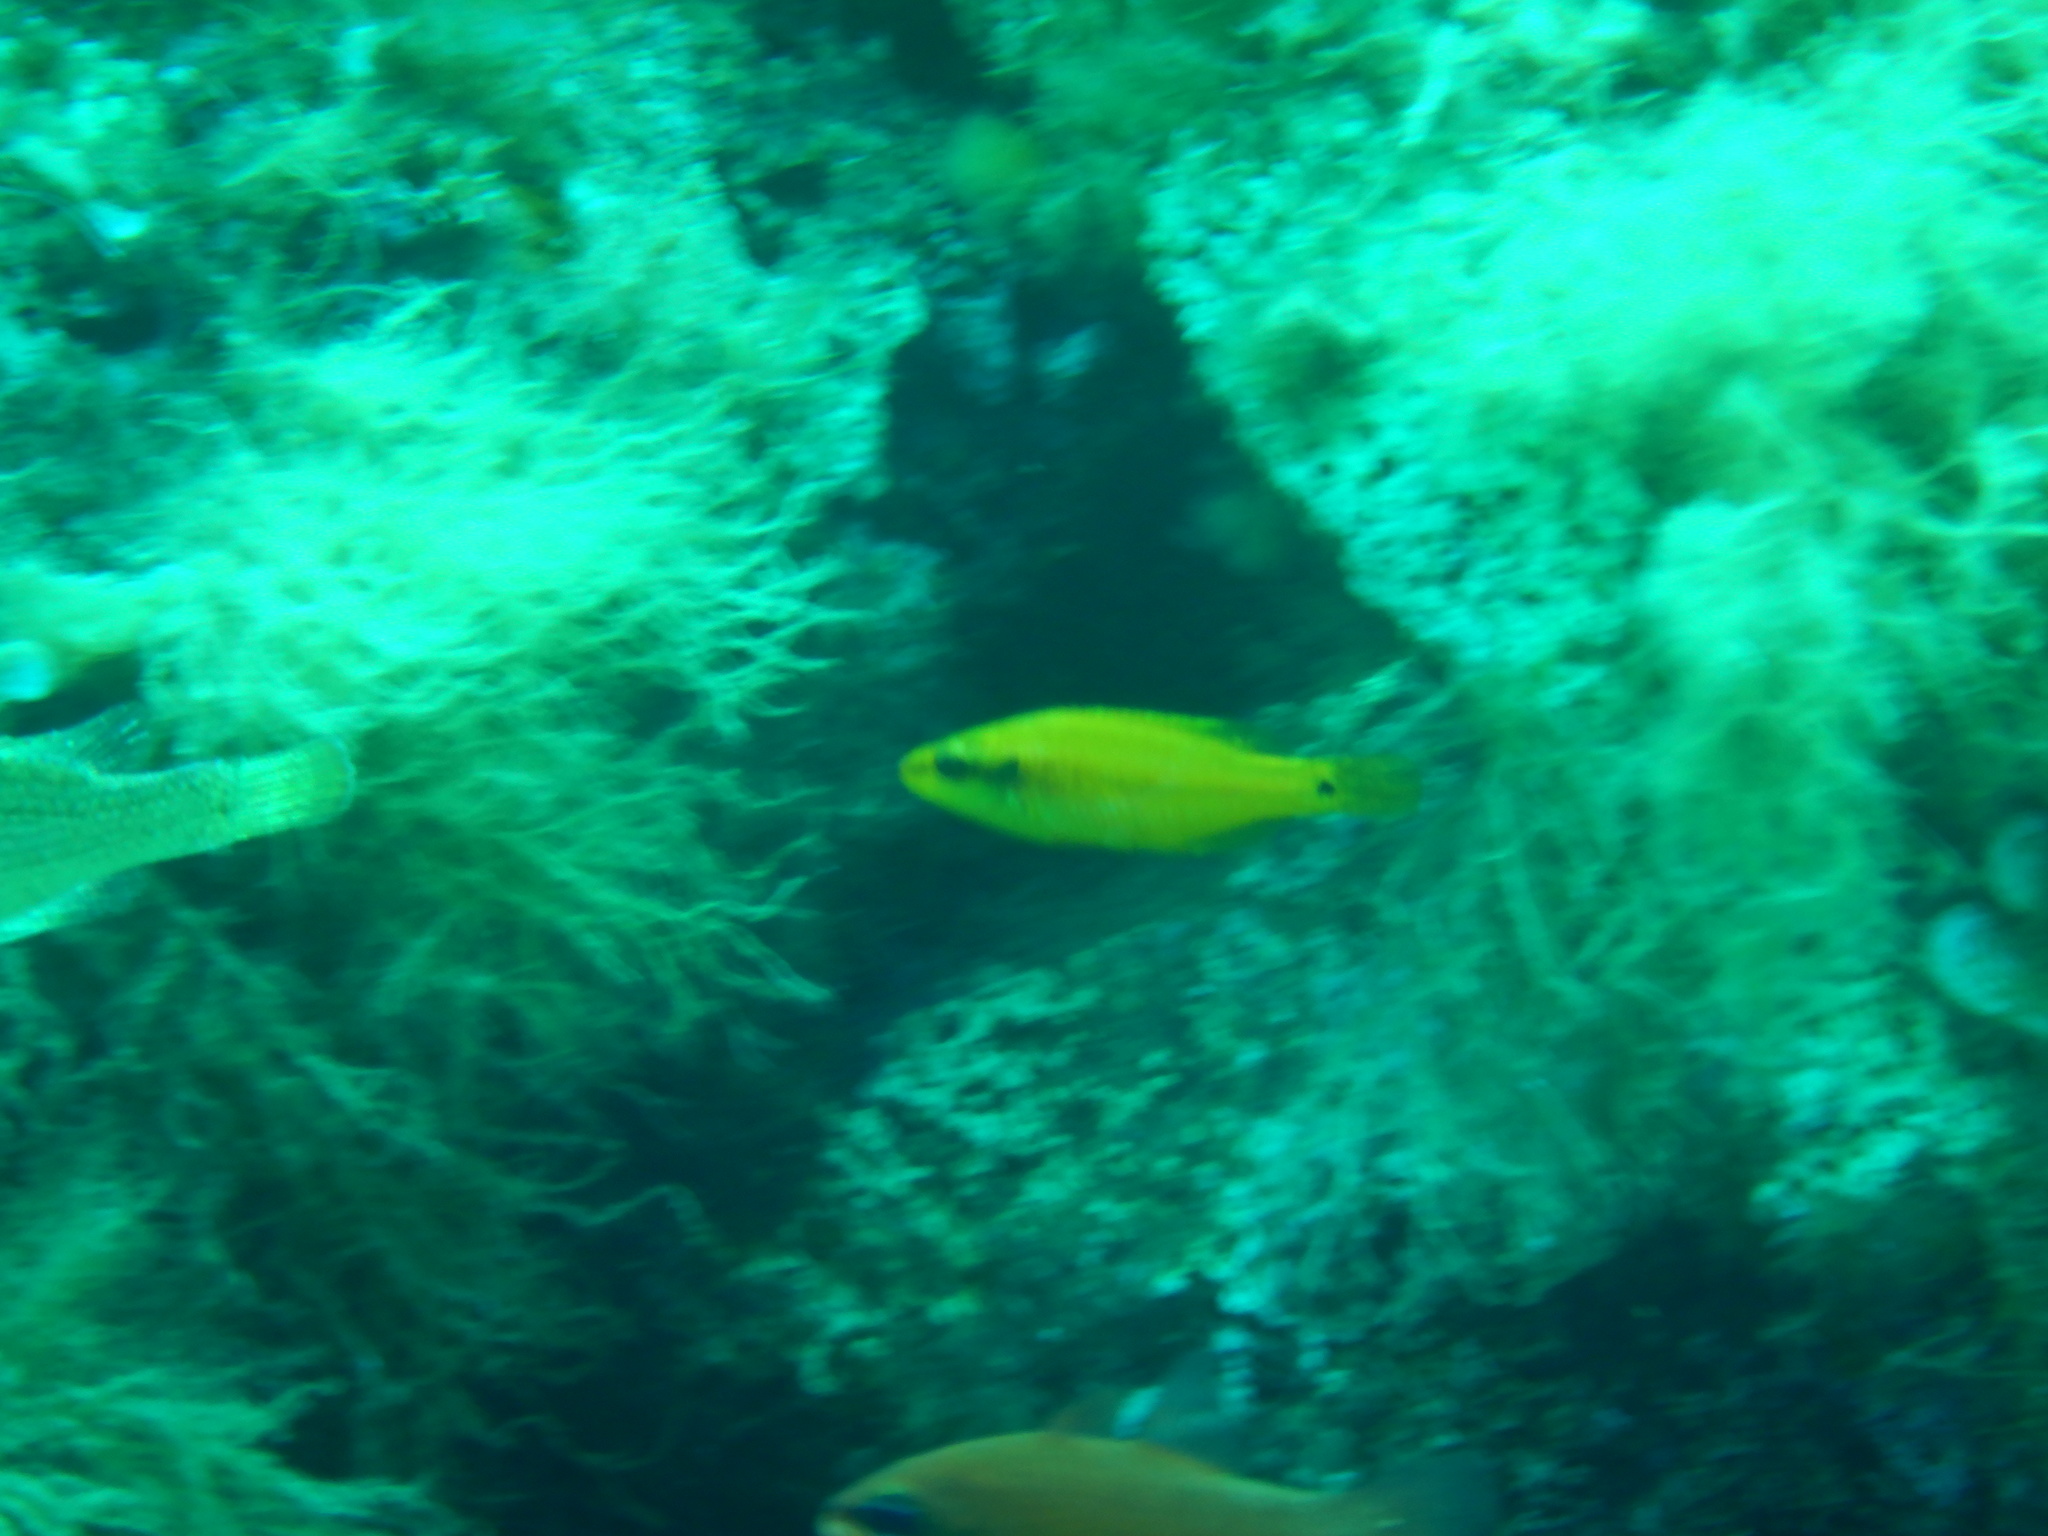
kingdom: Animalia
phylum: Chordata
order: Perciformes
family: Labridae
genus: Symphodus
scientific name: Symphodus ocellatus
